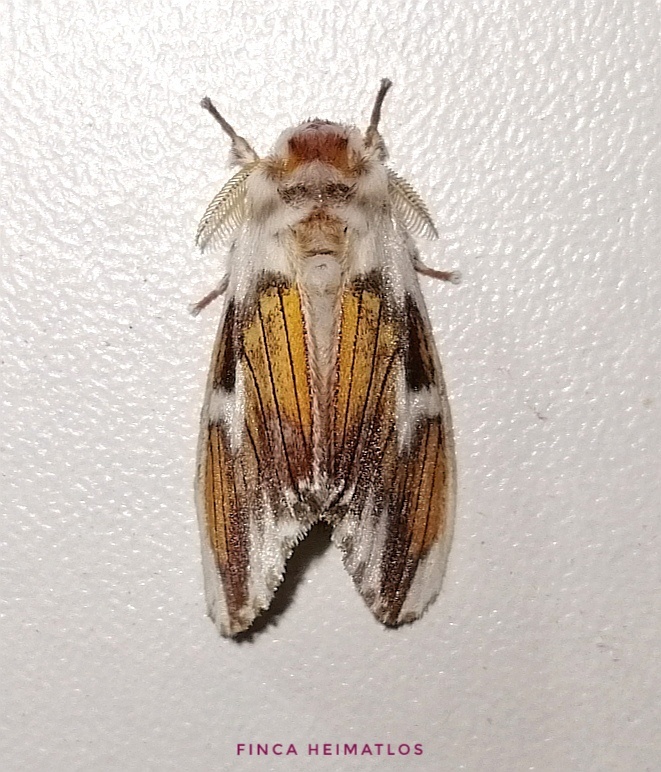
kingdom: Animalia
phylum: Arthropoda
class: Insecta
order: Lepidoptera
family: Erebidae
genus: Thagona
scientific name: Thagona hedila
